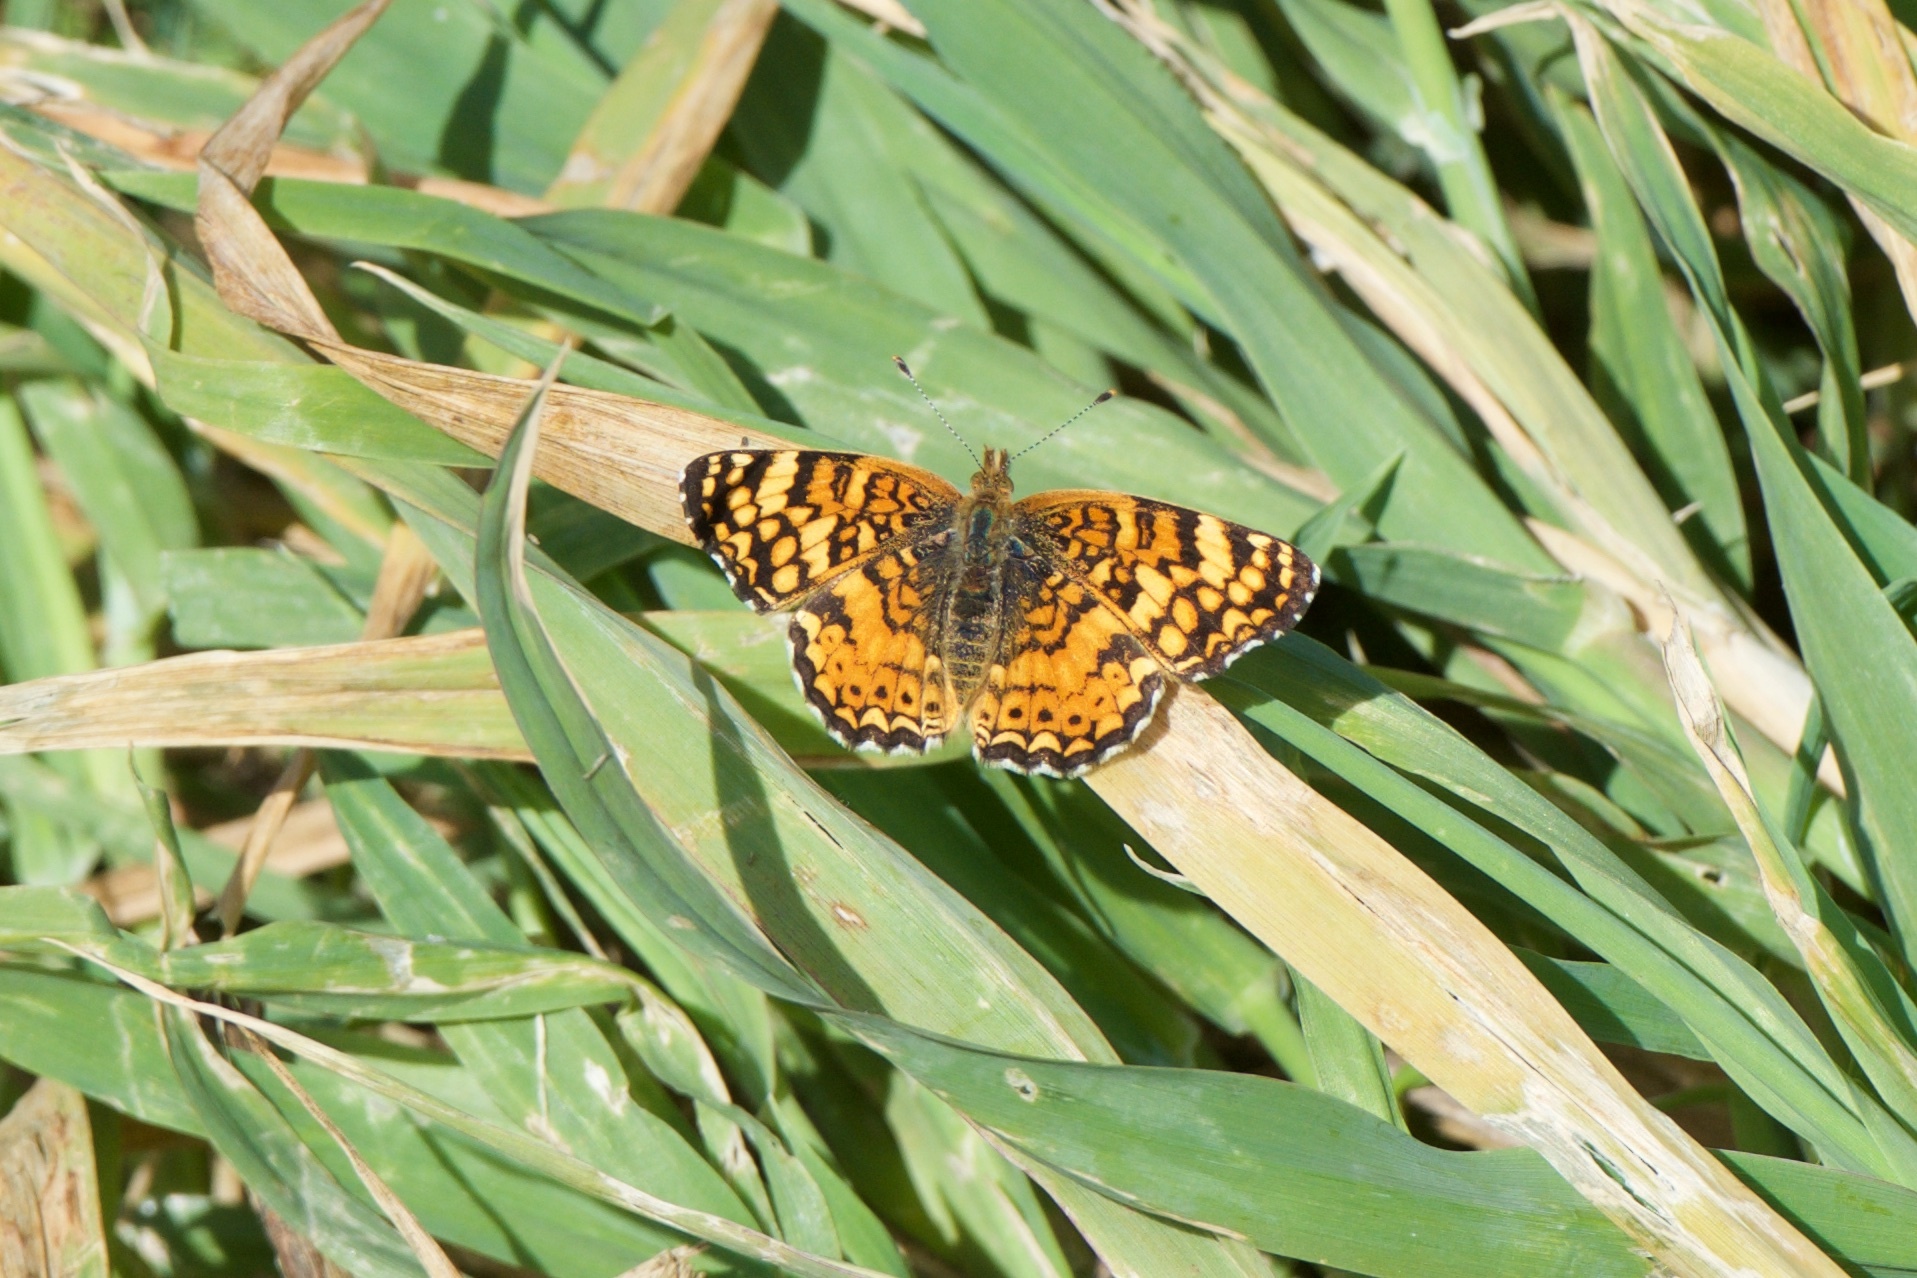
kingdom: Animalia
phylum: Arthropoda
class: Insecta
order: Lepidoptera
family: Nymphalidae
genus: Eresia
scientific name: Eresia aveyrona
